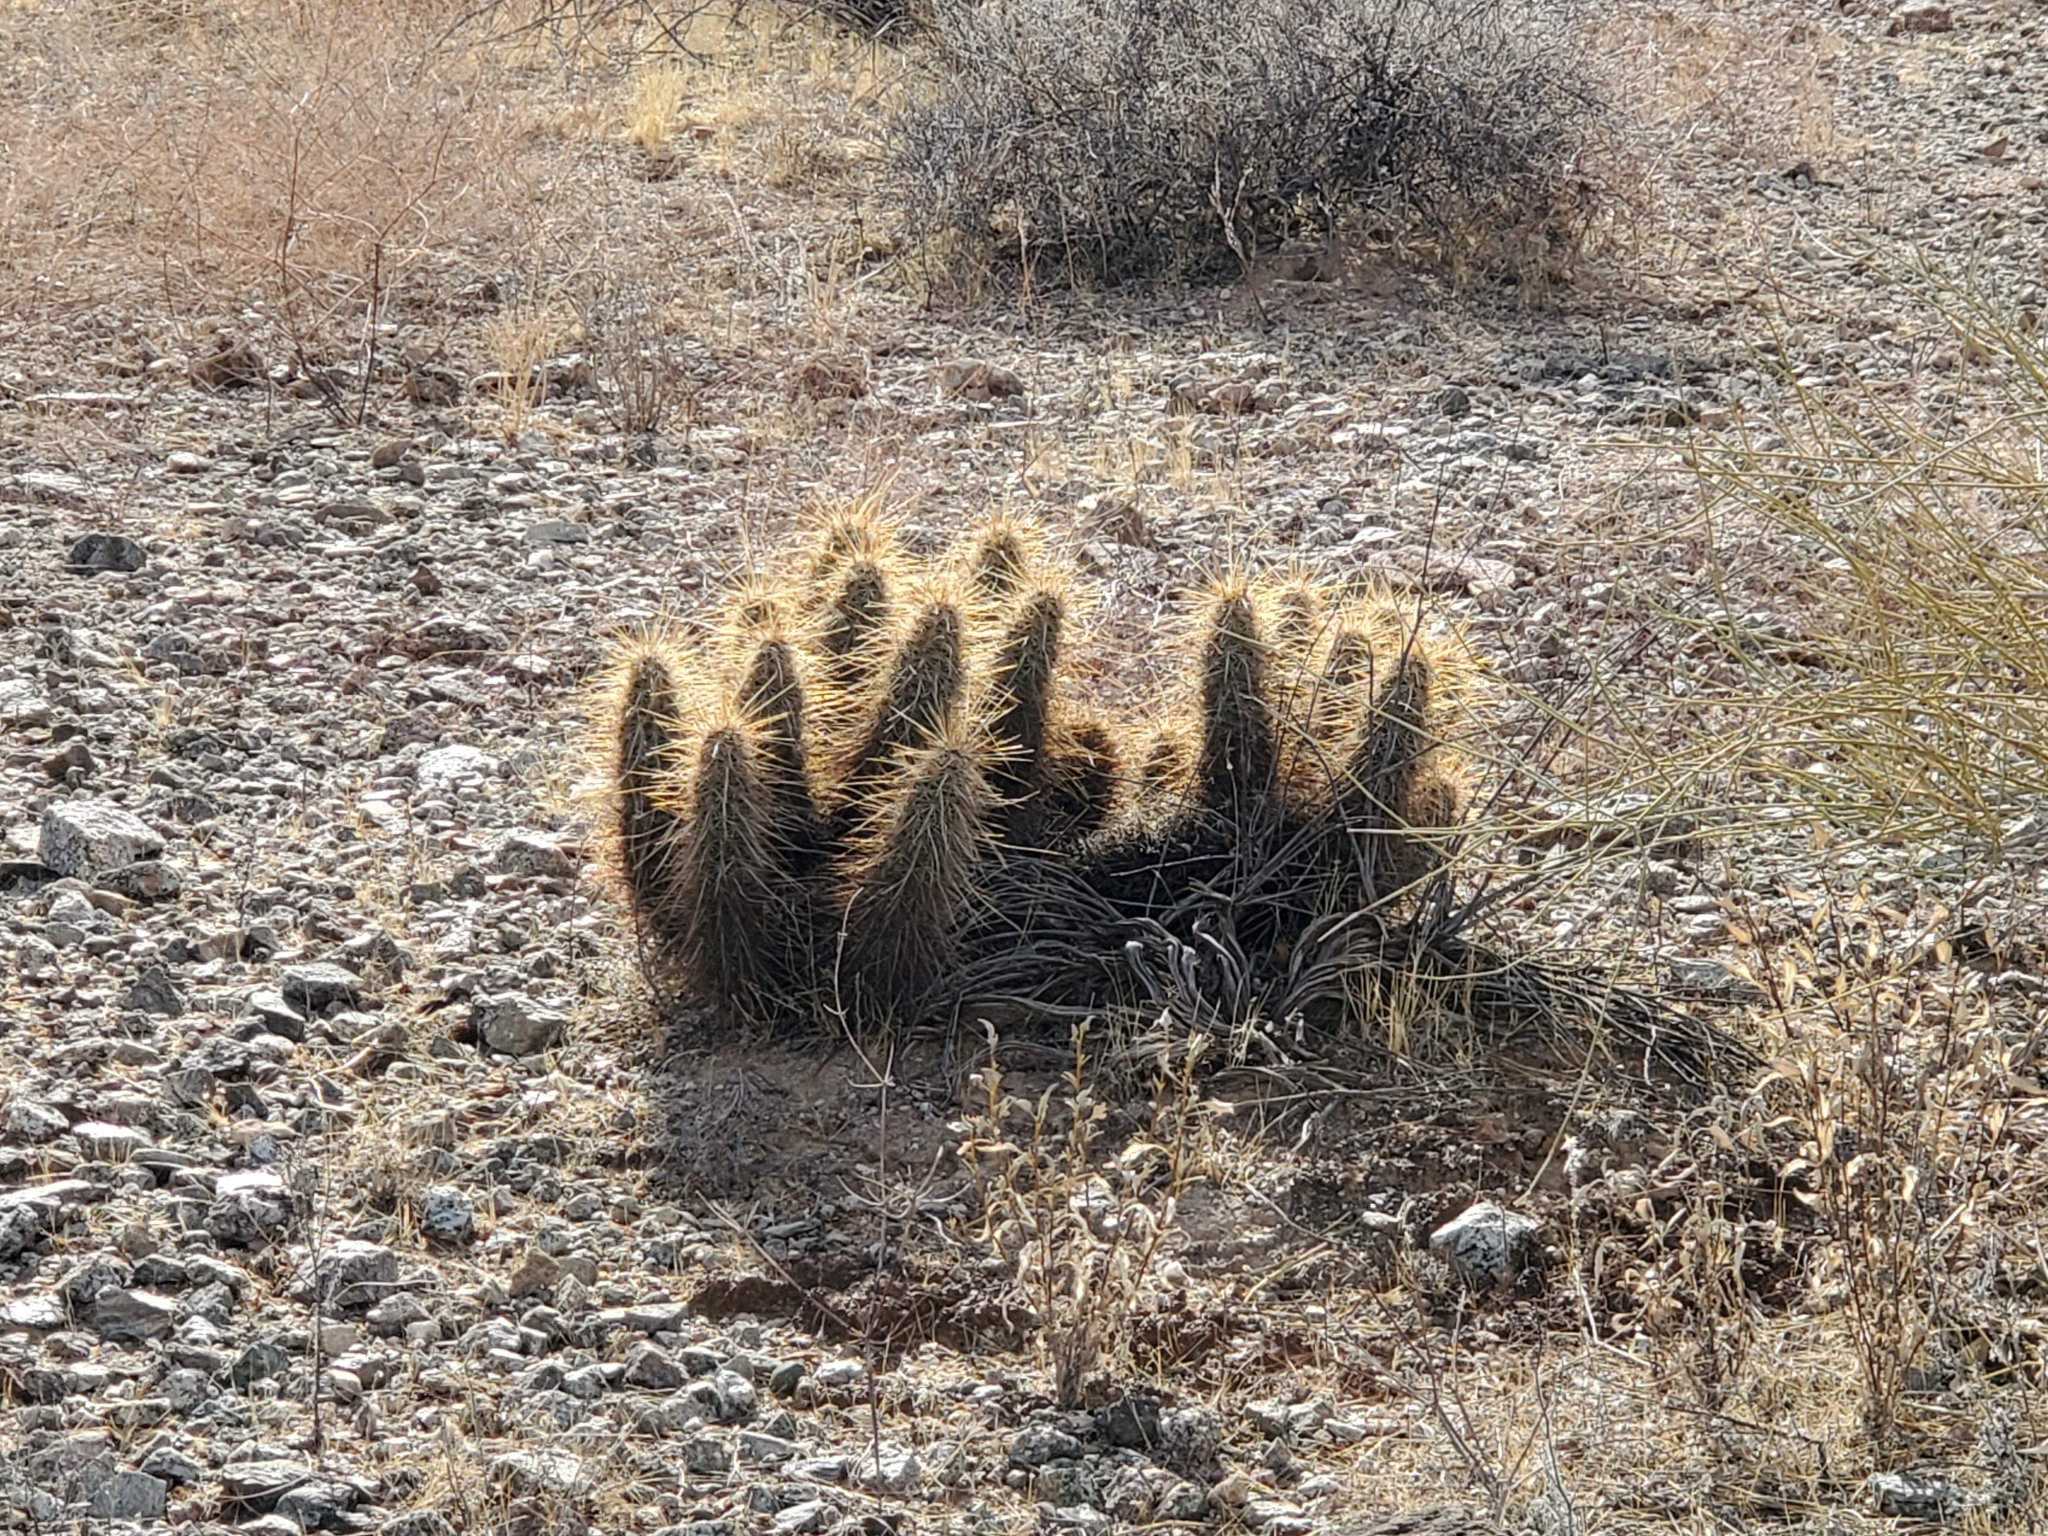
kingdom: Plantae
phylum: Tracheophyta
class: Magnoliopsida
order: Caryophyllales
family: Cactaceae
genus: Echinocereus
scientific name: Echinocereus engelmannii
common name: Engelmann's hedgehog cactus
